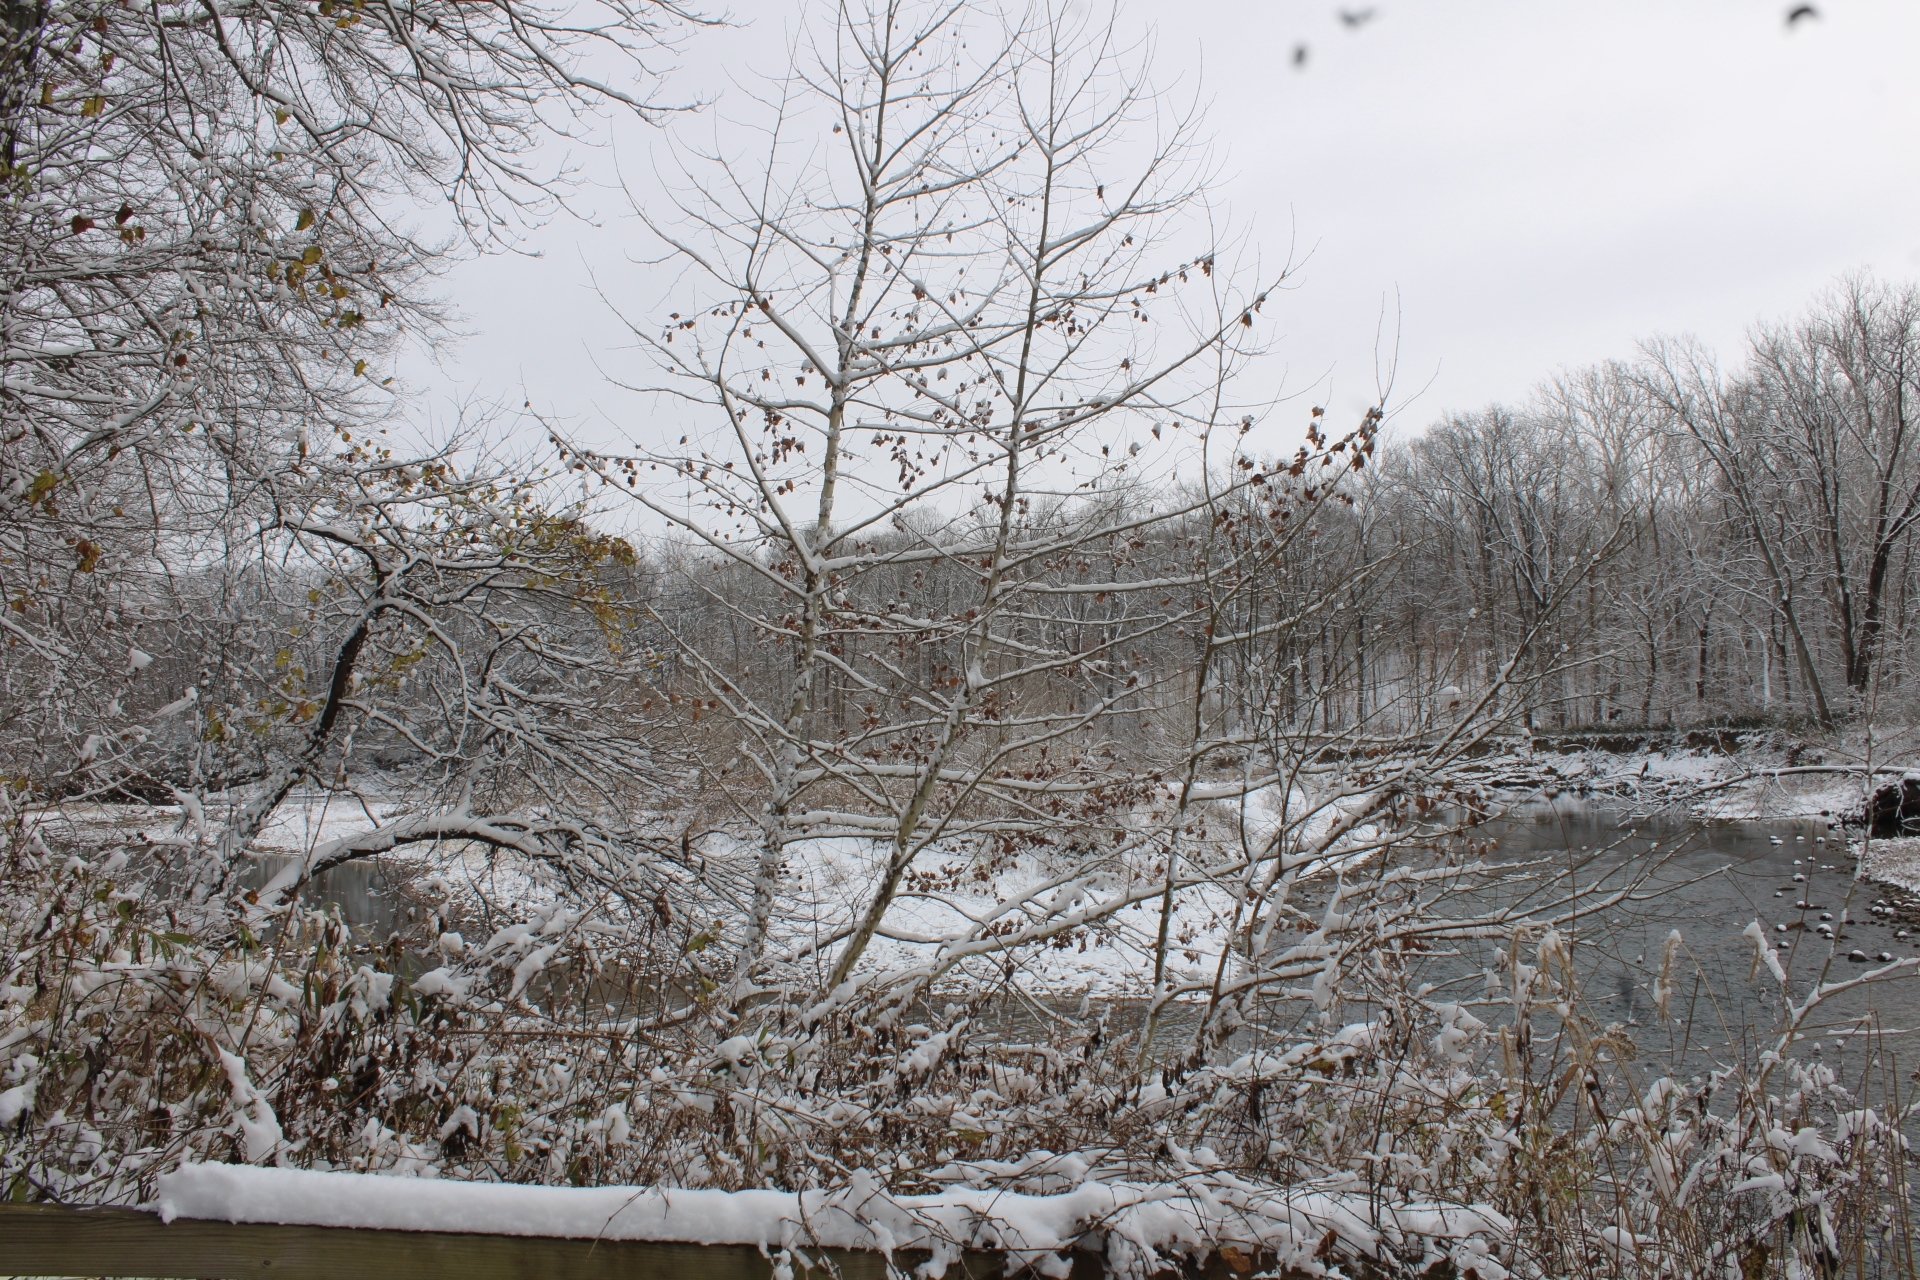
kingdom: Plantae
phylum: Tracheophyta
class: Magnoliopsida
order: Proteales
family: Platanaceae
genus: Platanus
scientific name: Platanus occidentalis
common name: American sycamore
